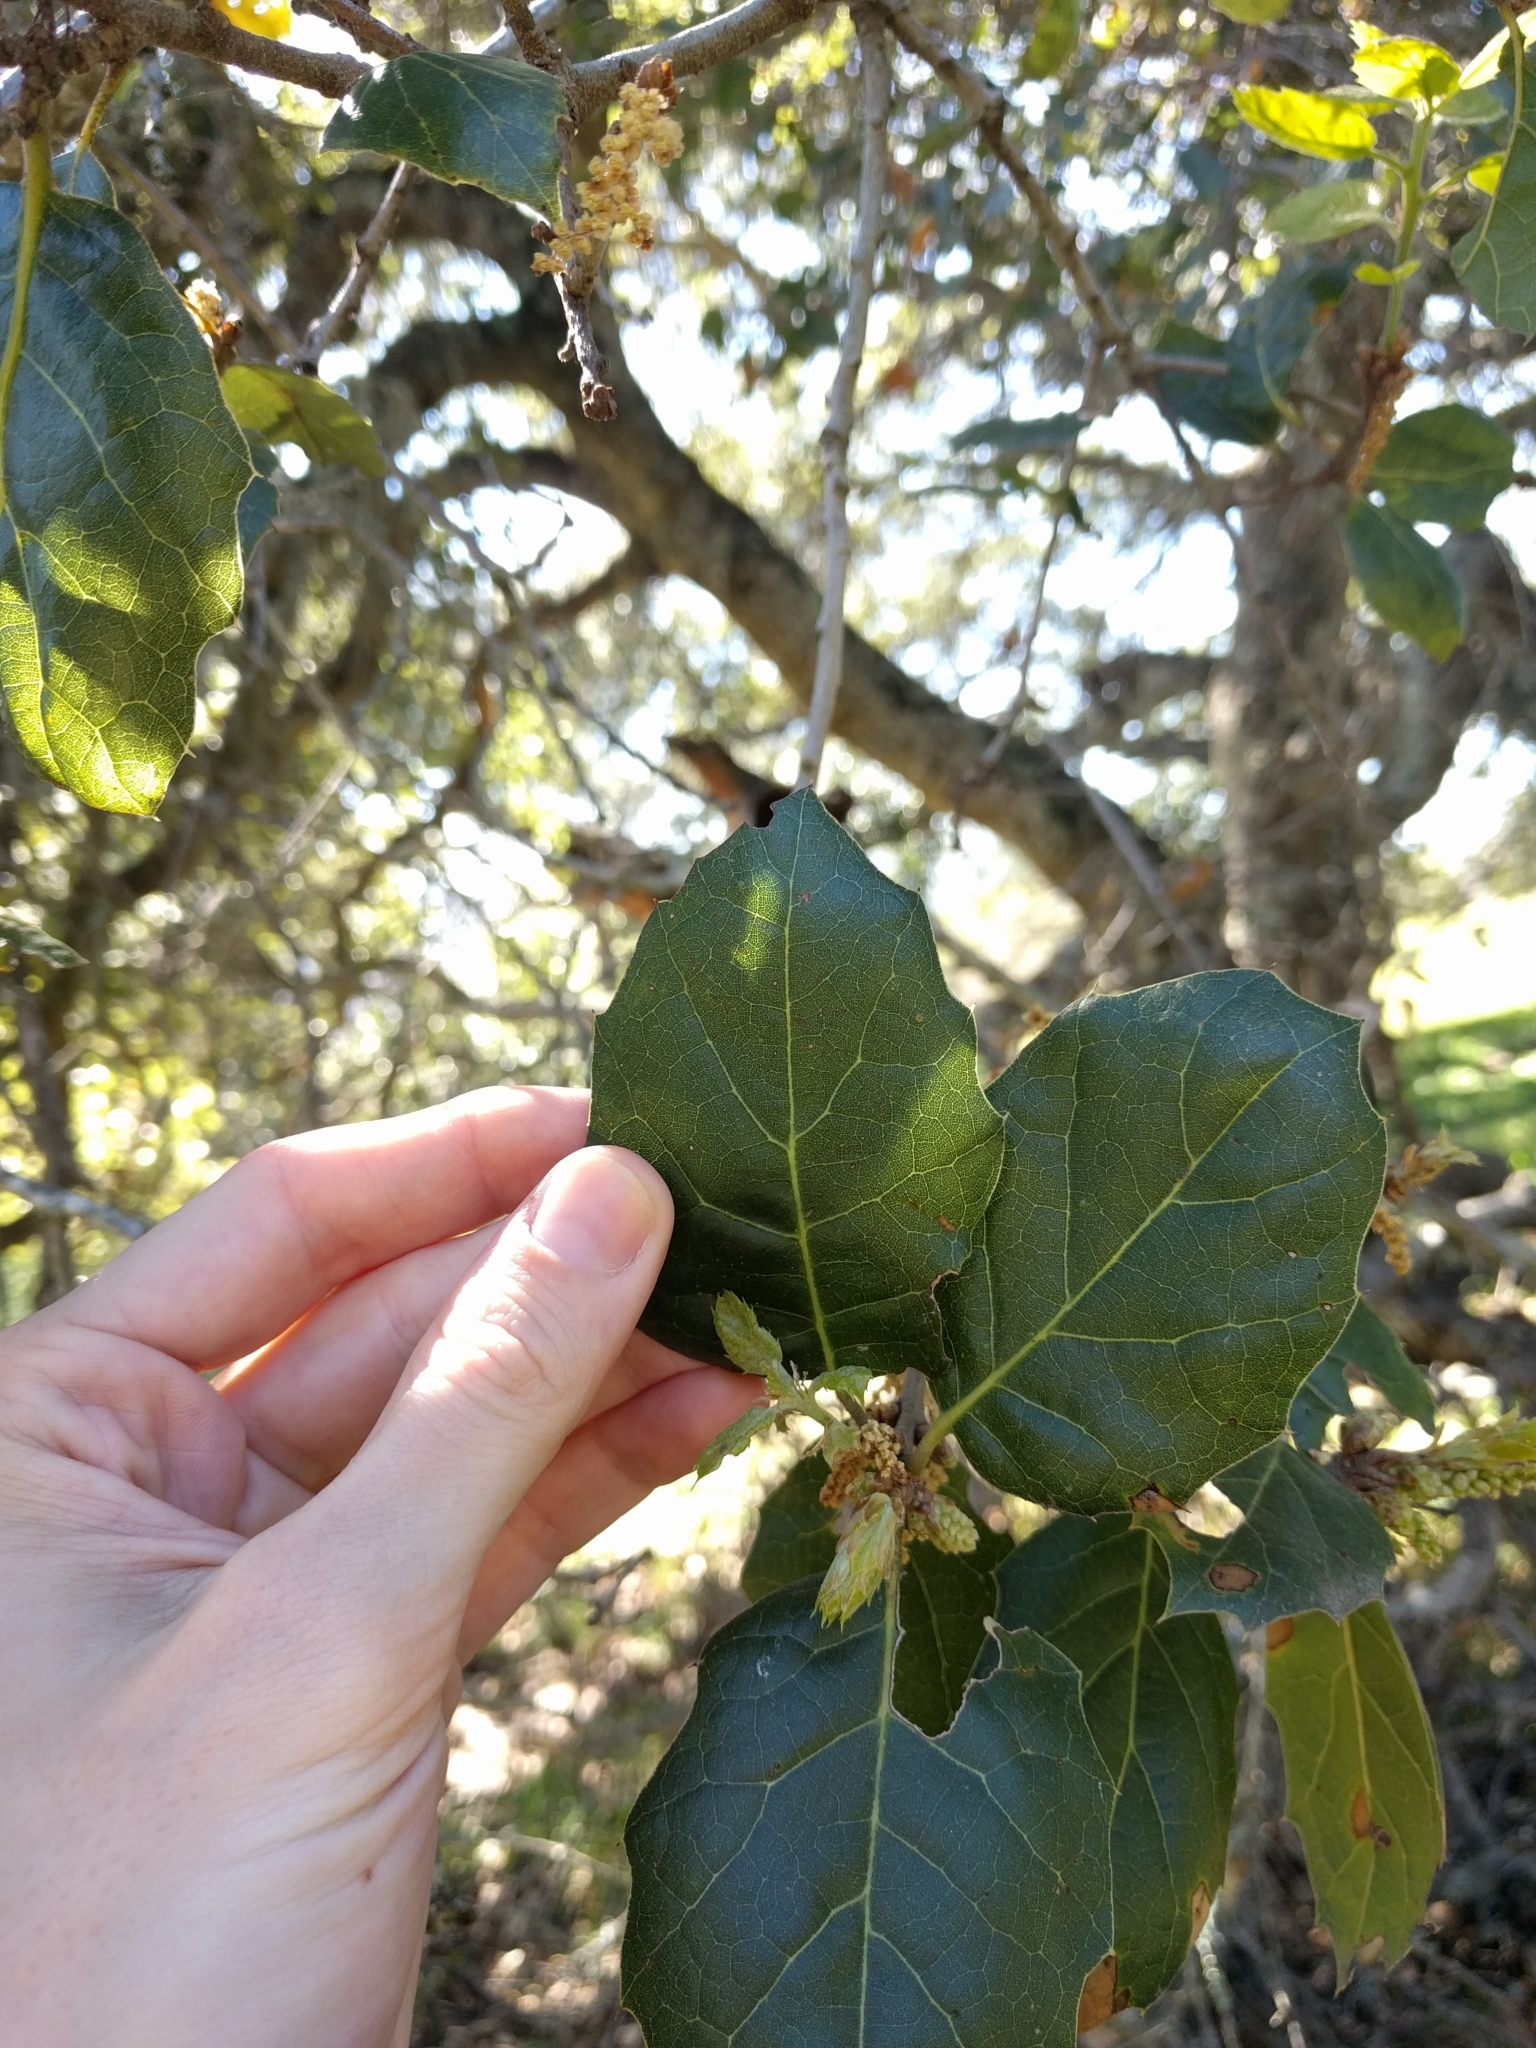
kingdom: Plantae
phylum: Tracheophyta
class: Magnoliopsida
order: Fagales
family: Fagaceae
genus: Quercus
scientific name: Quercus agrifolia
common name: California live oak
